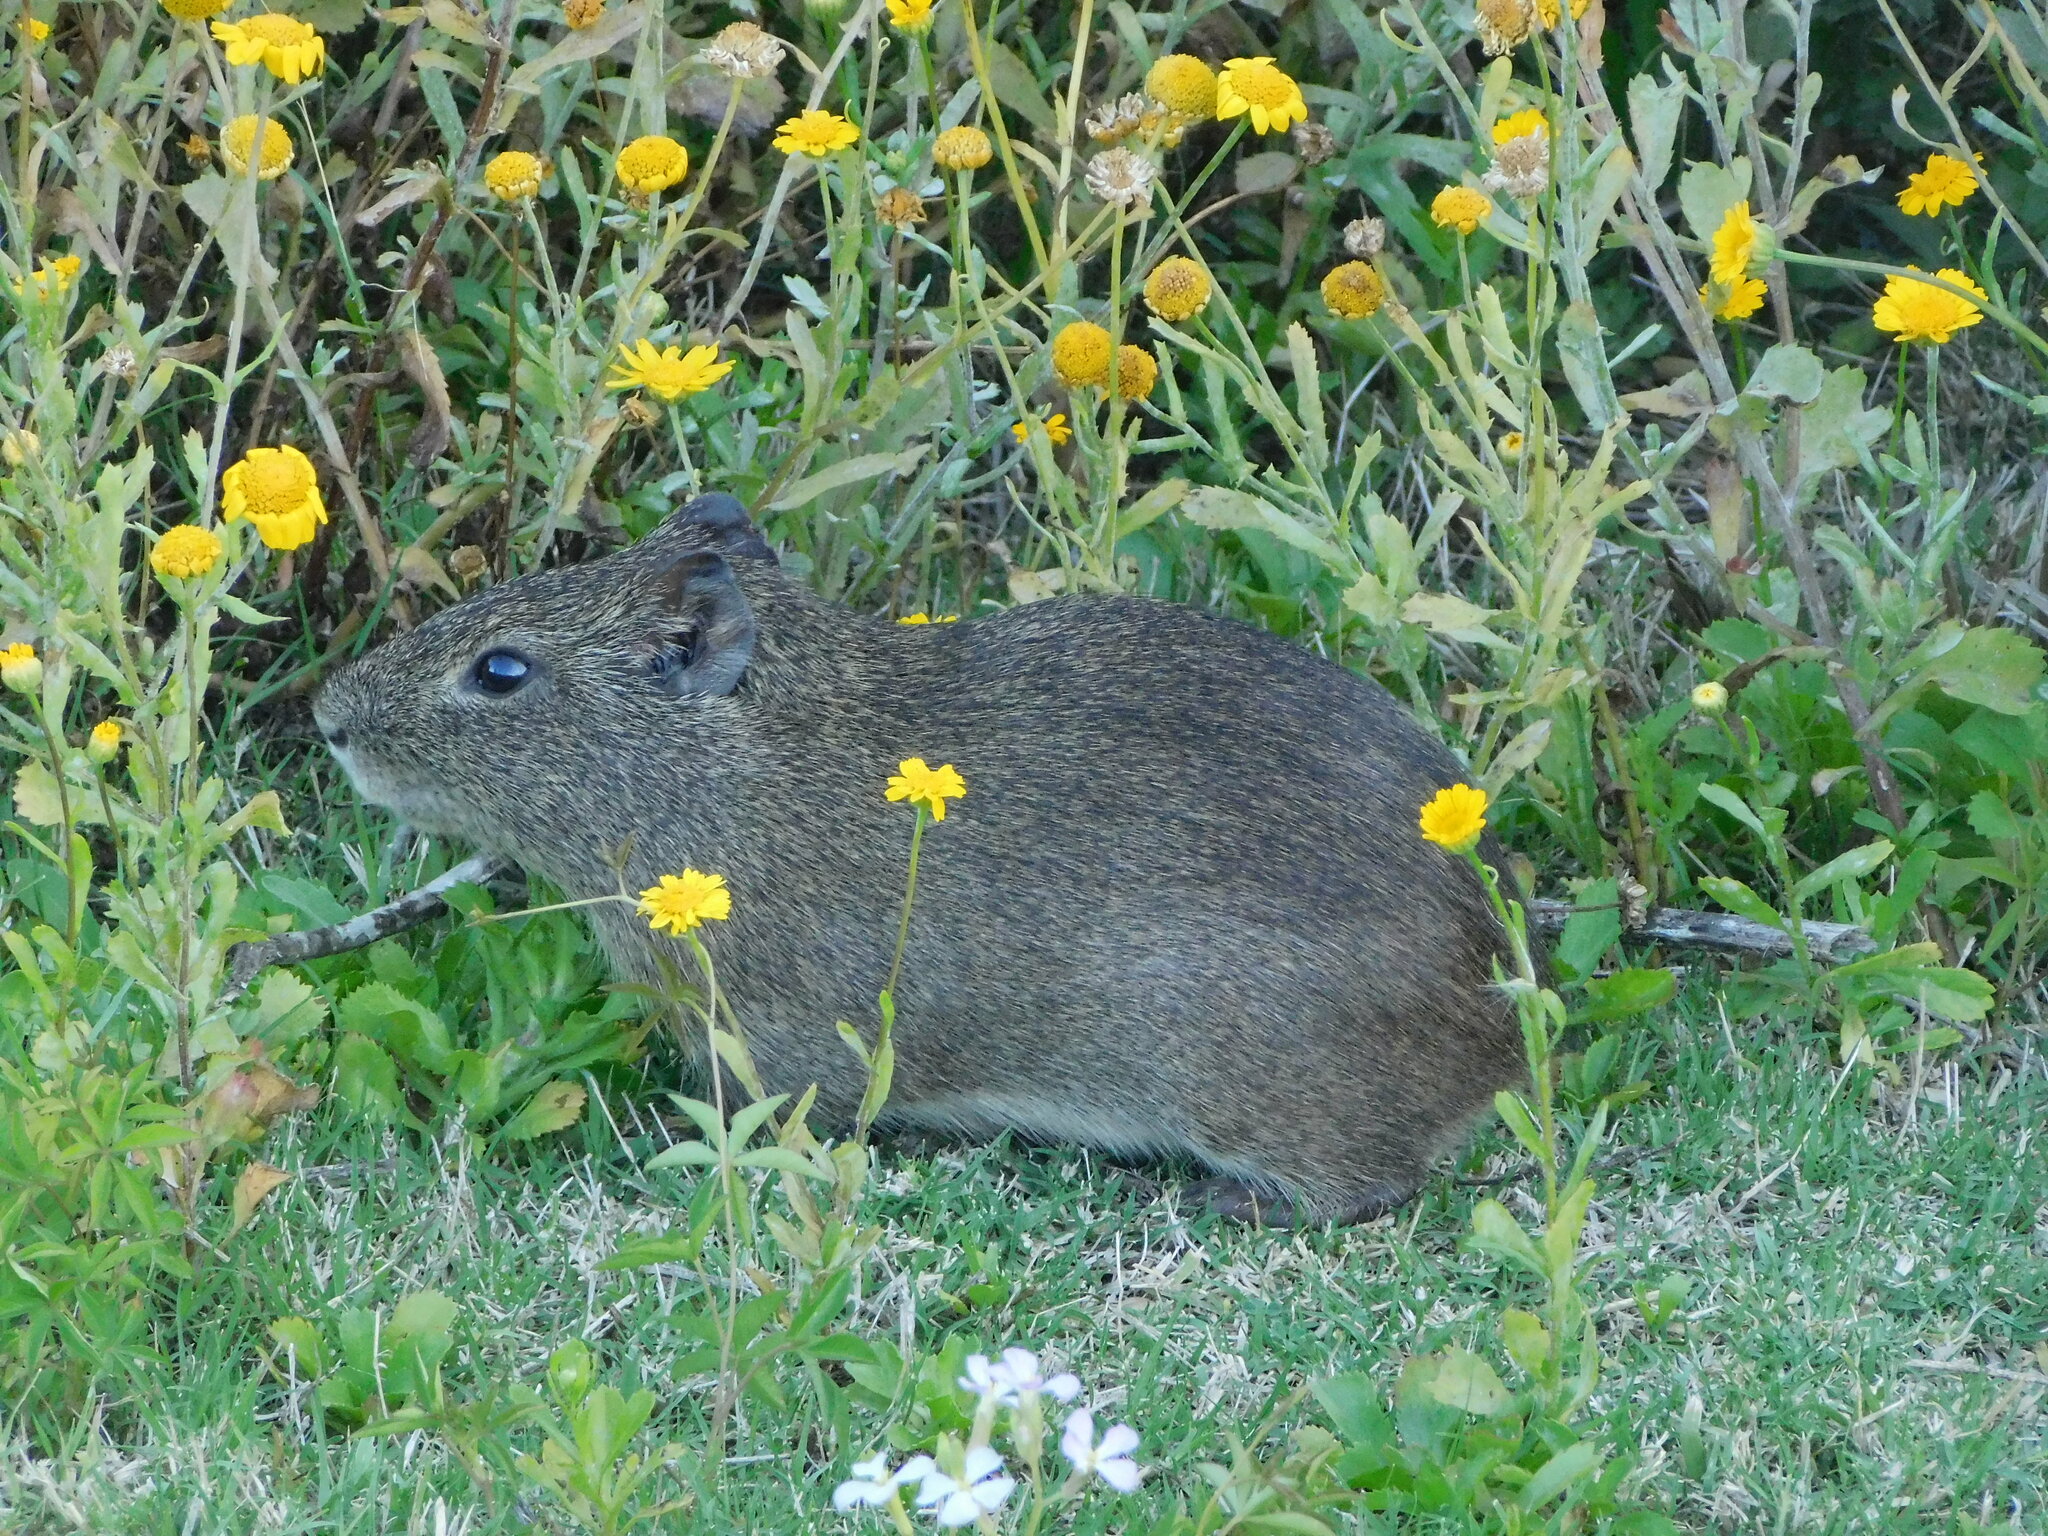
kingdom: Animalia
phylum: Chordata
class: Mammalia
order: Rodentia
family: Caviidae
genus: Cavia
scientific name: Cavia aperea
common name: Brazilian guinea pig
